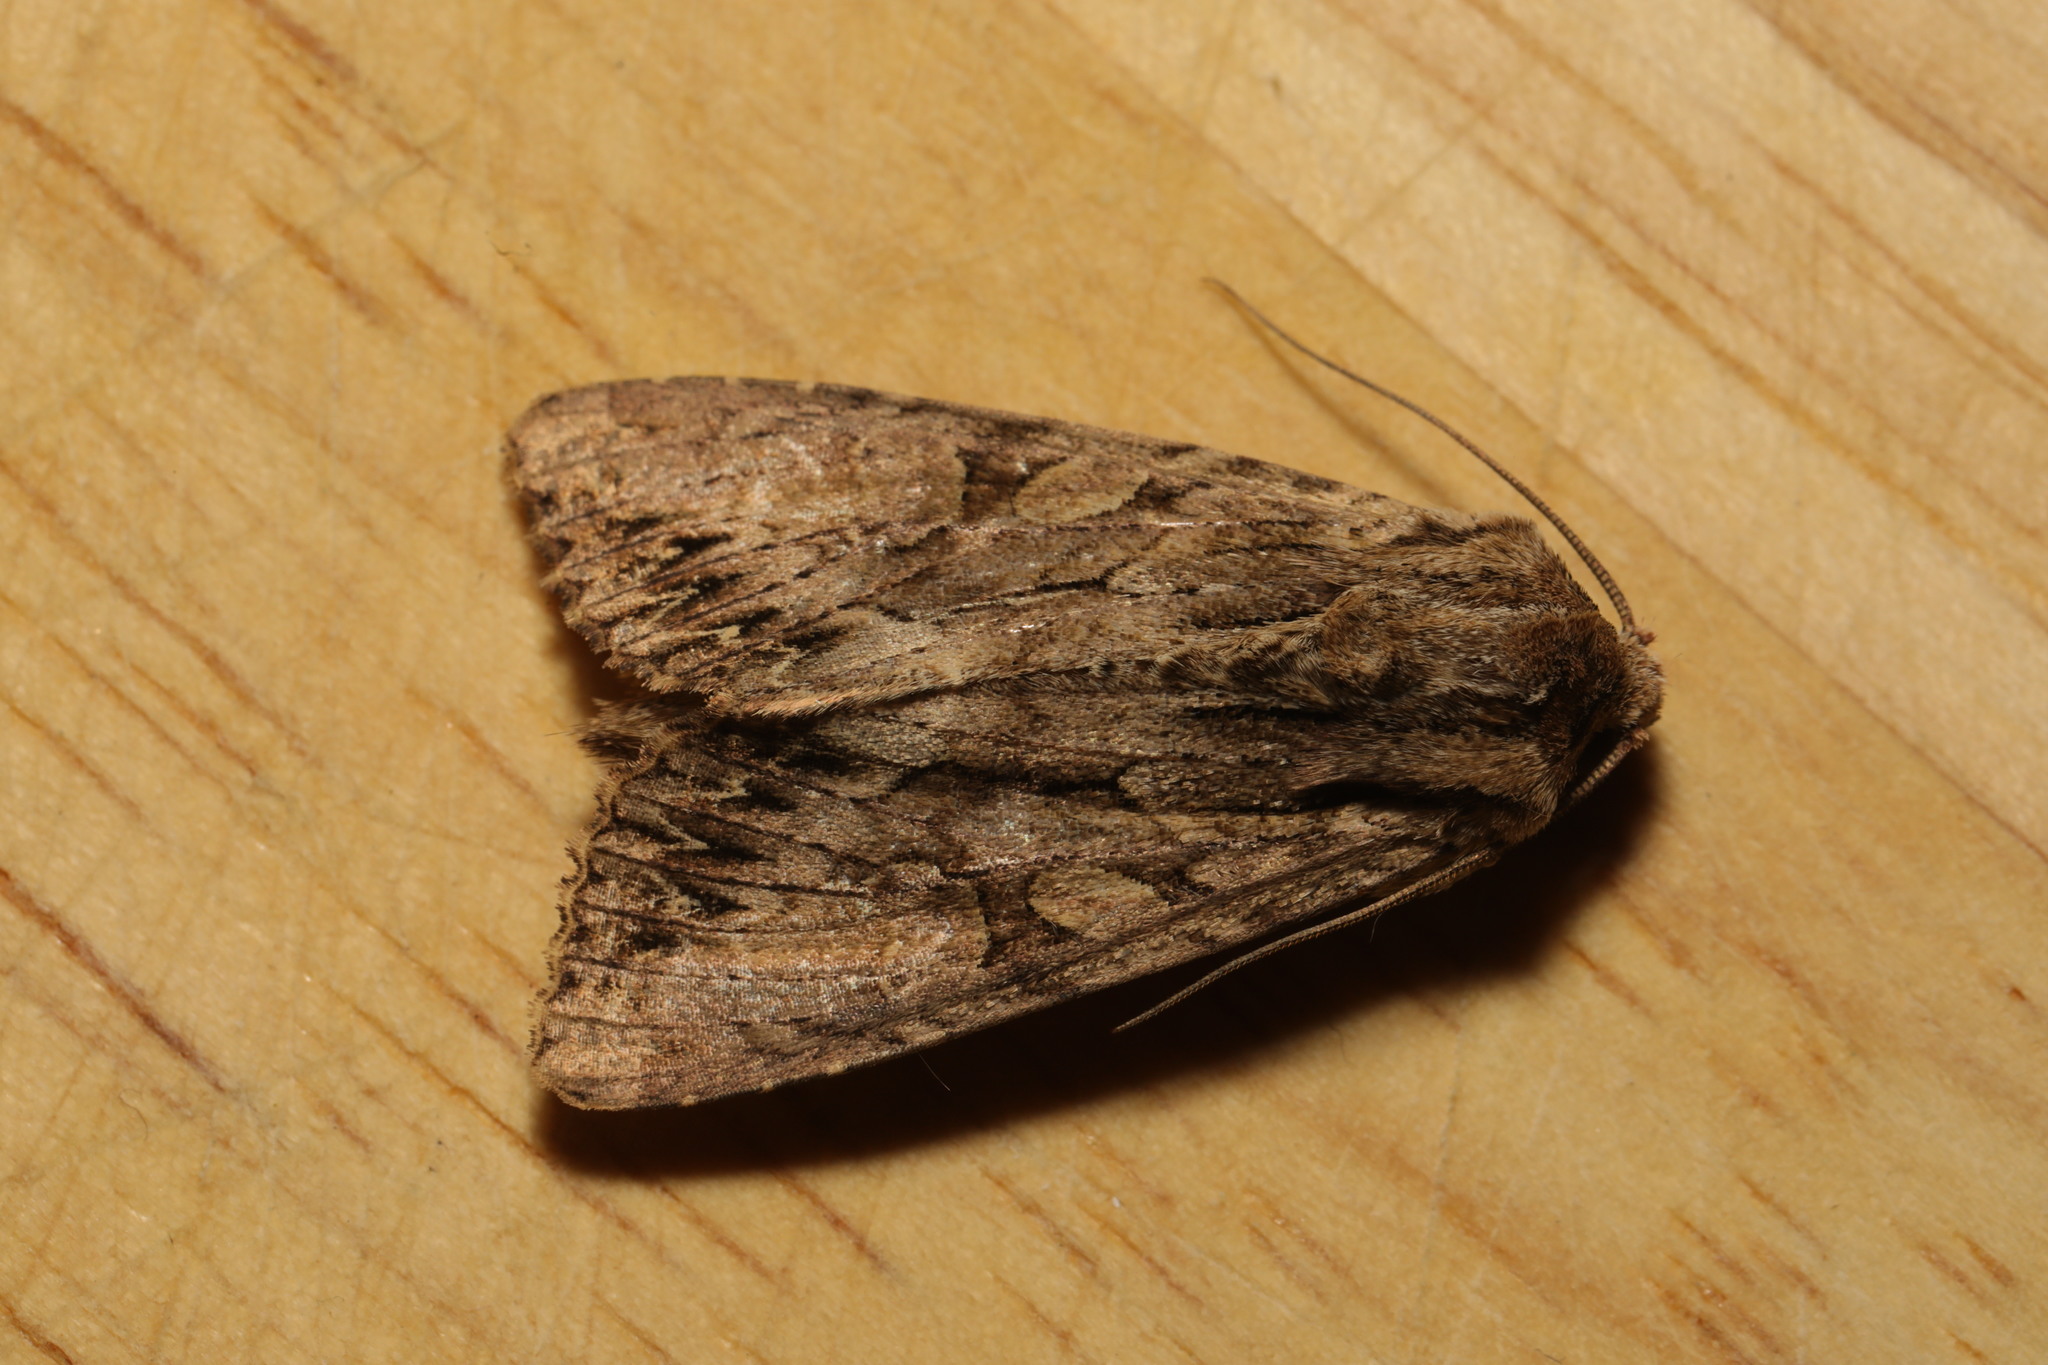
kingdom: Animalia
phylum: Arthropoda
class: Insecta
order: Lepidoptera
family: Noctuidae
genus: Apamea
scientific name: Apamea monoglypha
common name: Dark arches
